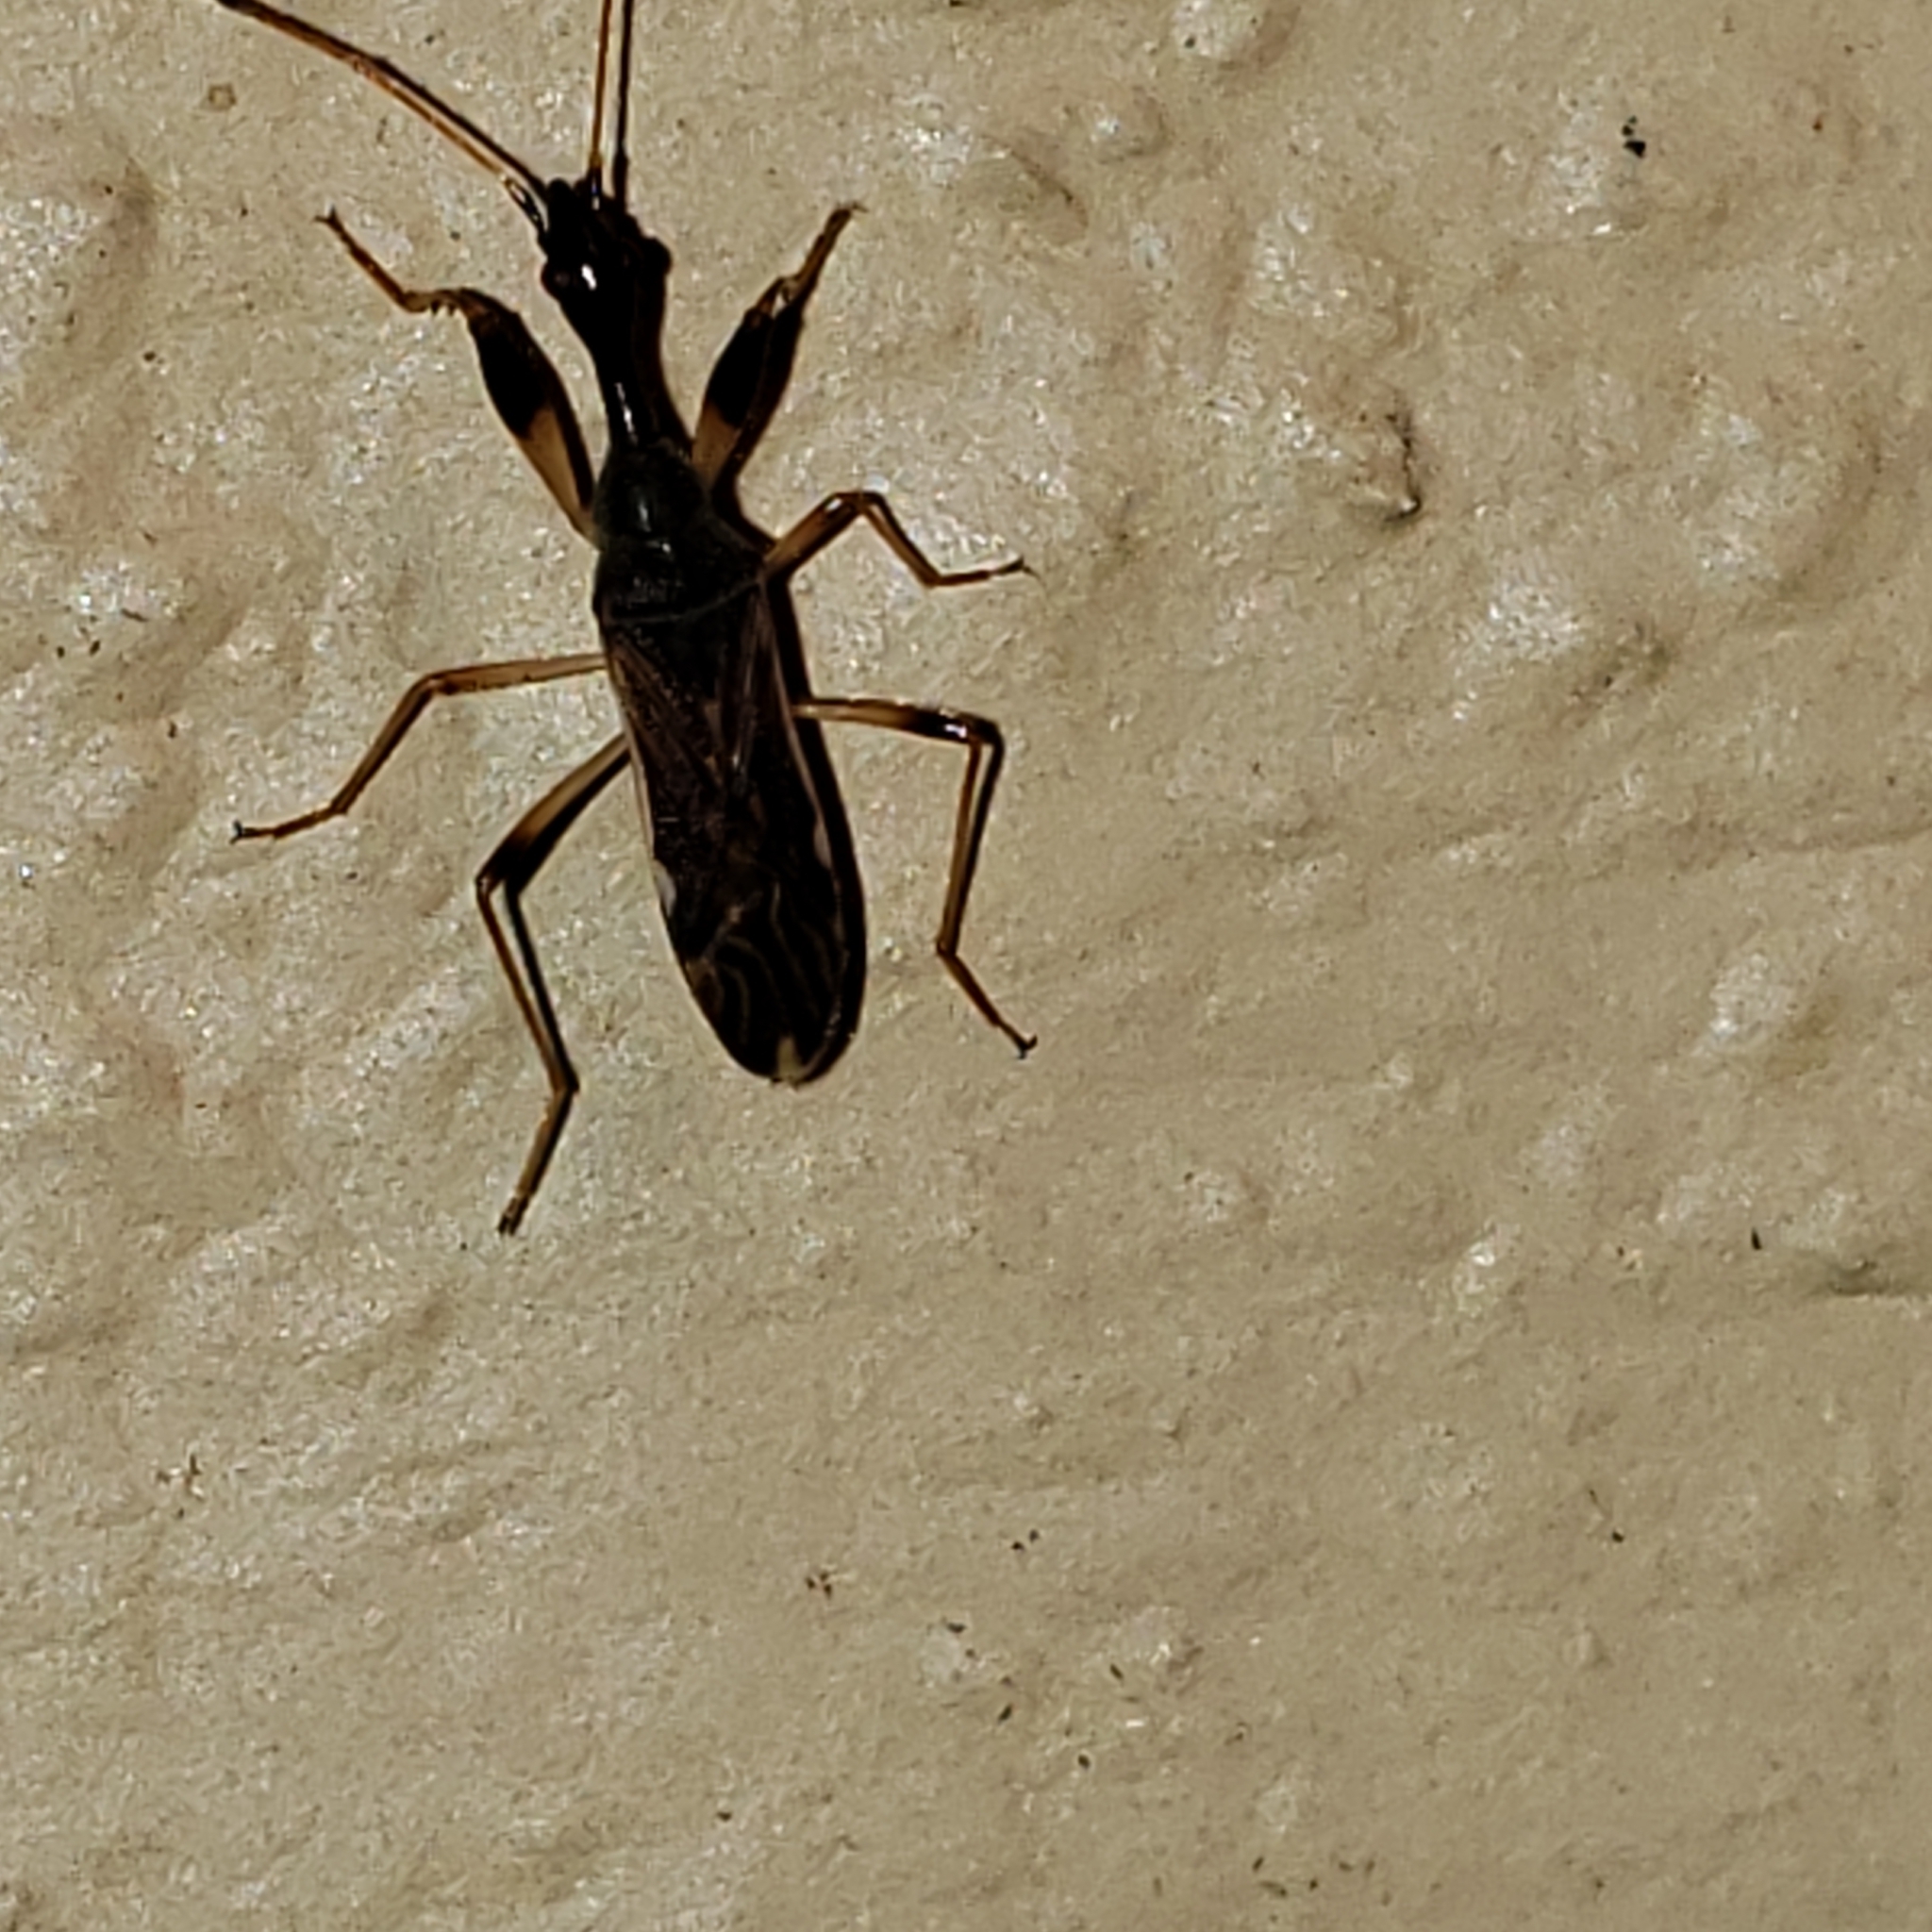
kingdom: Animalia
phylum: Arthropoda
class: Insecta
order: Hemiptera
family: Rhyparochromidae
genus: Myodocha
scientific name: Myodocha serripes
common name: Long-necked seed bug
